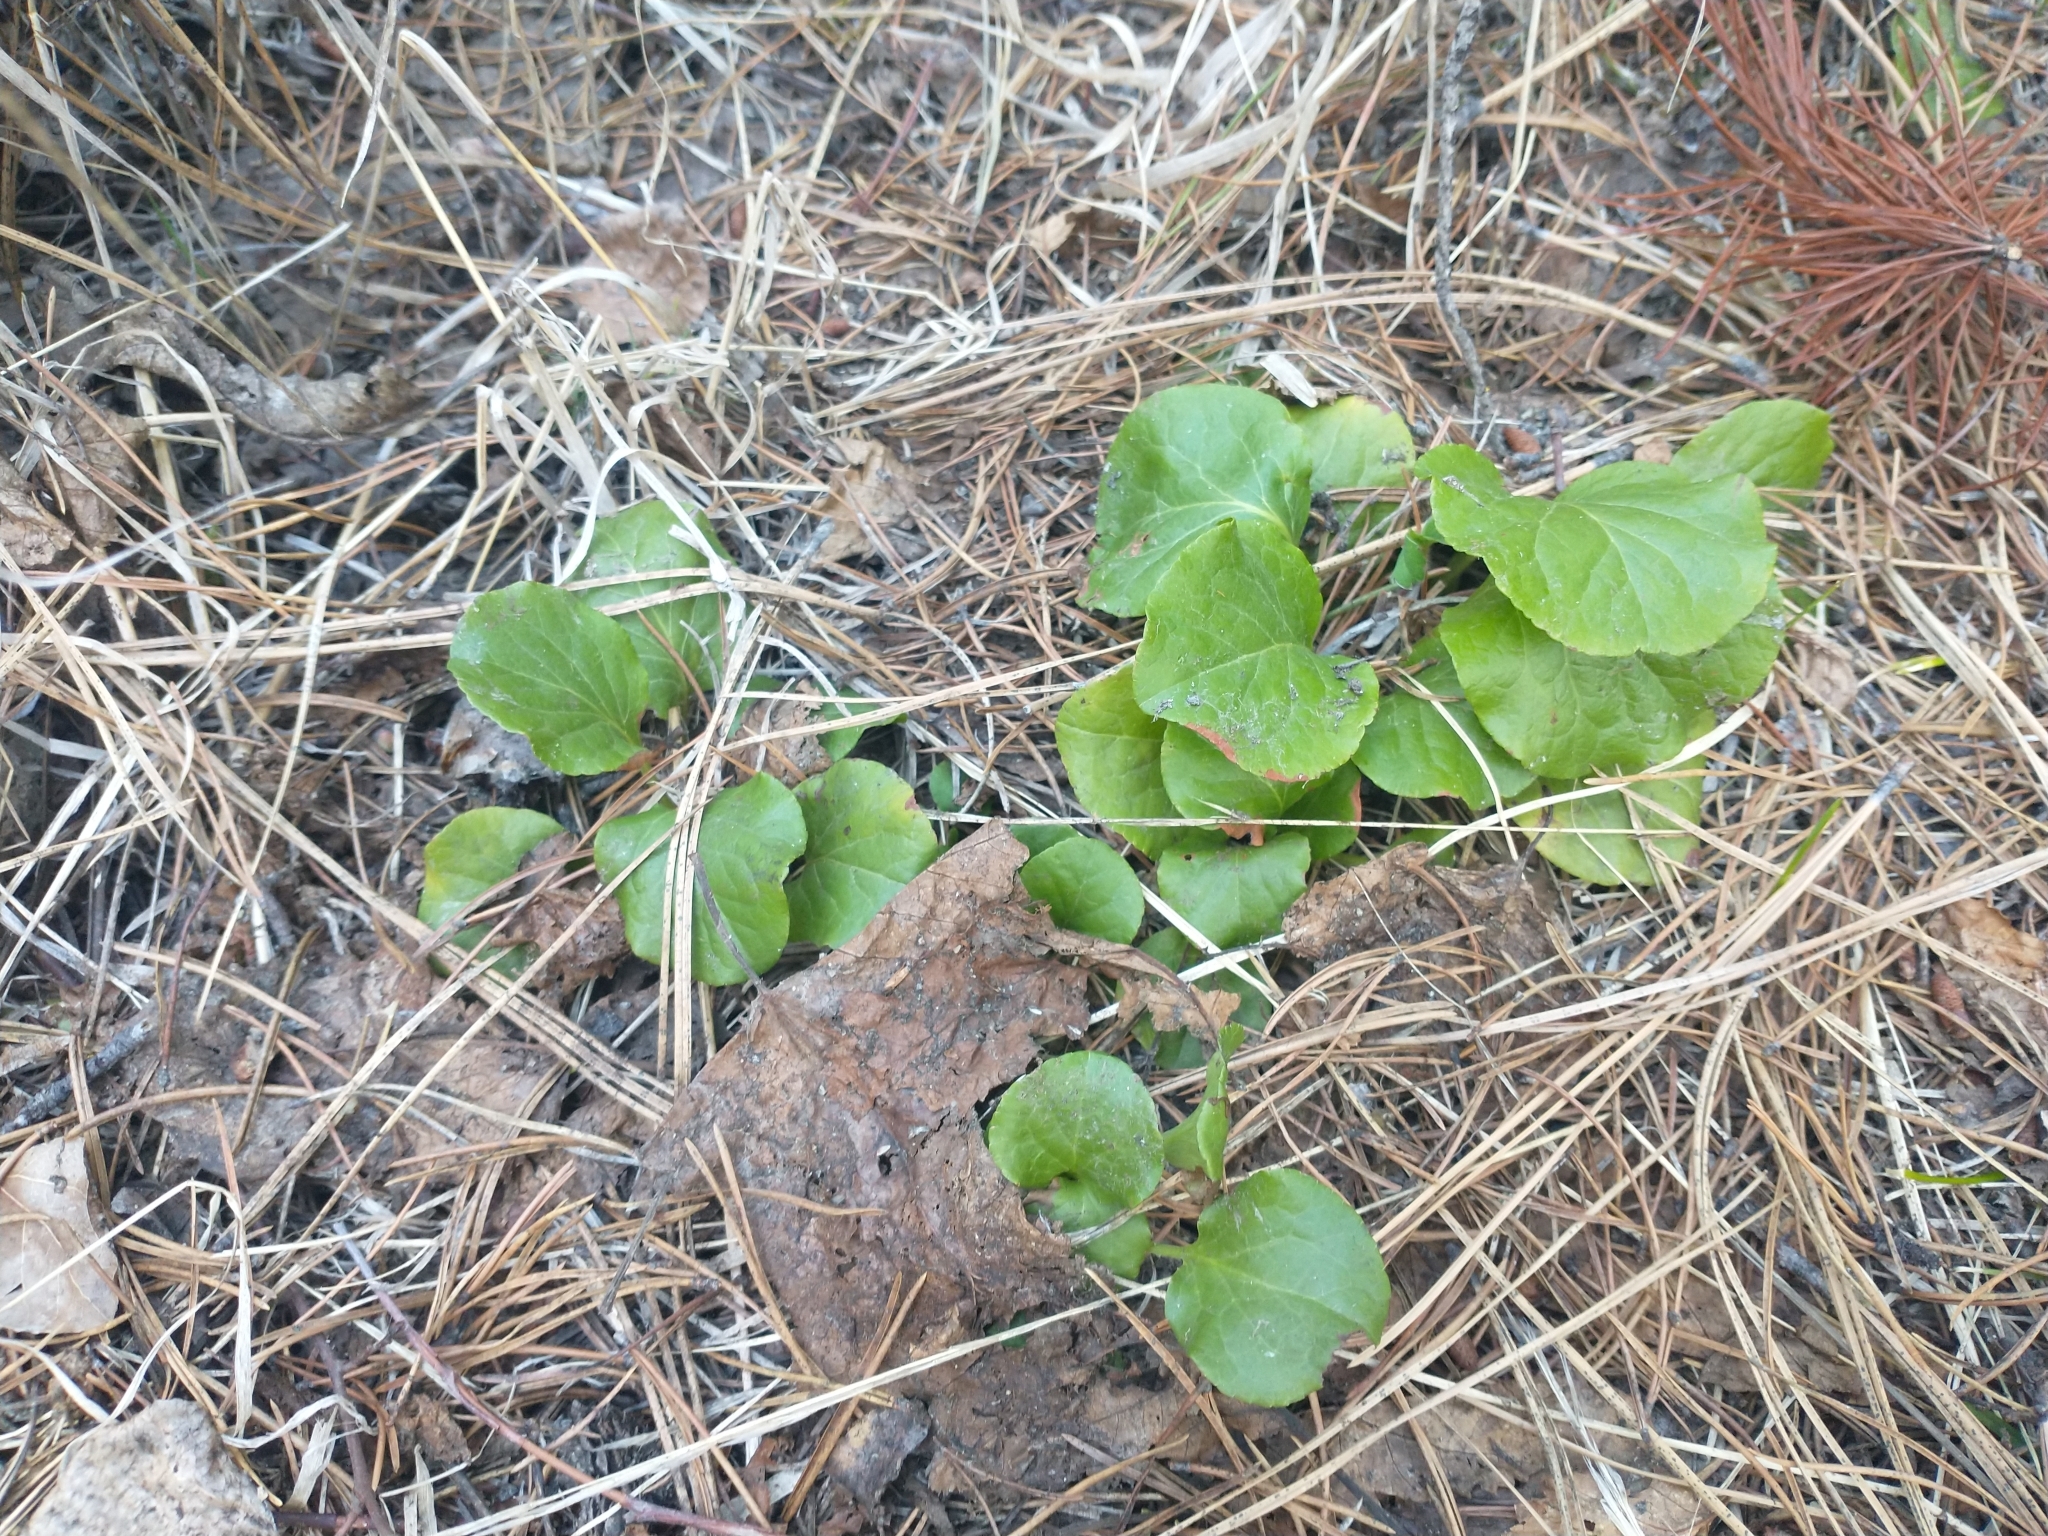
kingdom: Plantae
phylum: Tracheophyta
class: Magnoliopsida
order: Ericales
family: Ericaceae
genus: Pyrola
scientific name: Pyrola asarifolia
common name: Bog wintergreen
